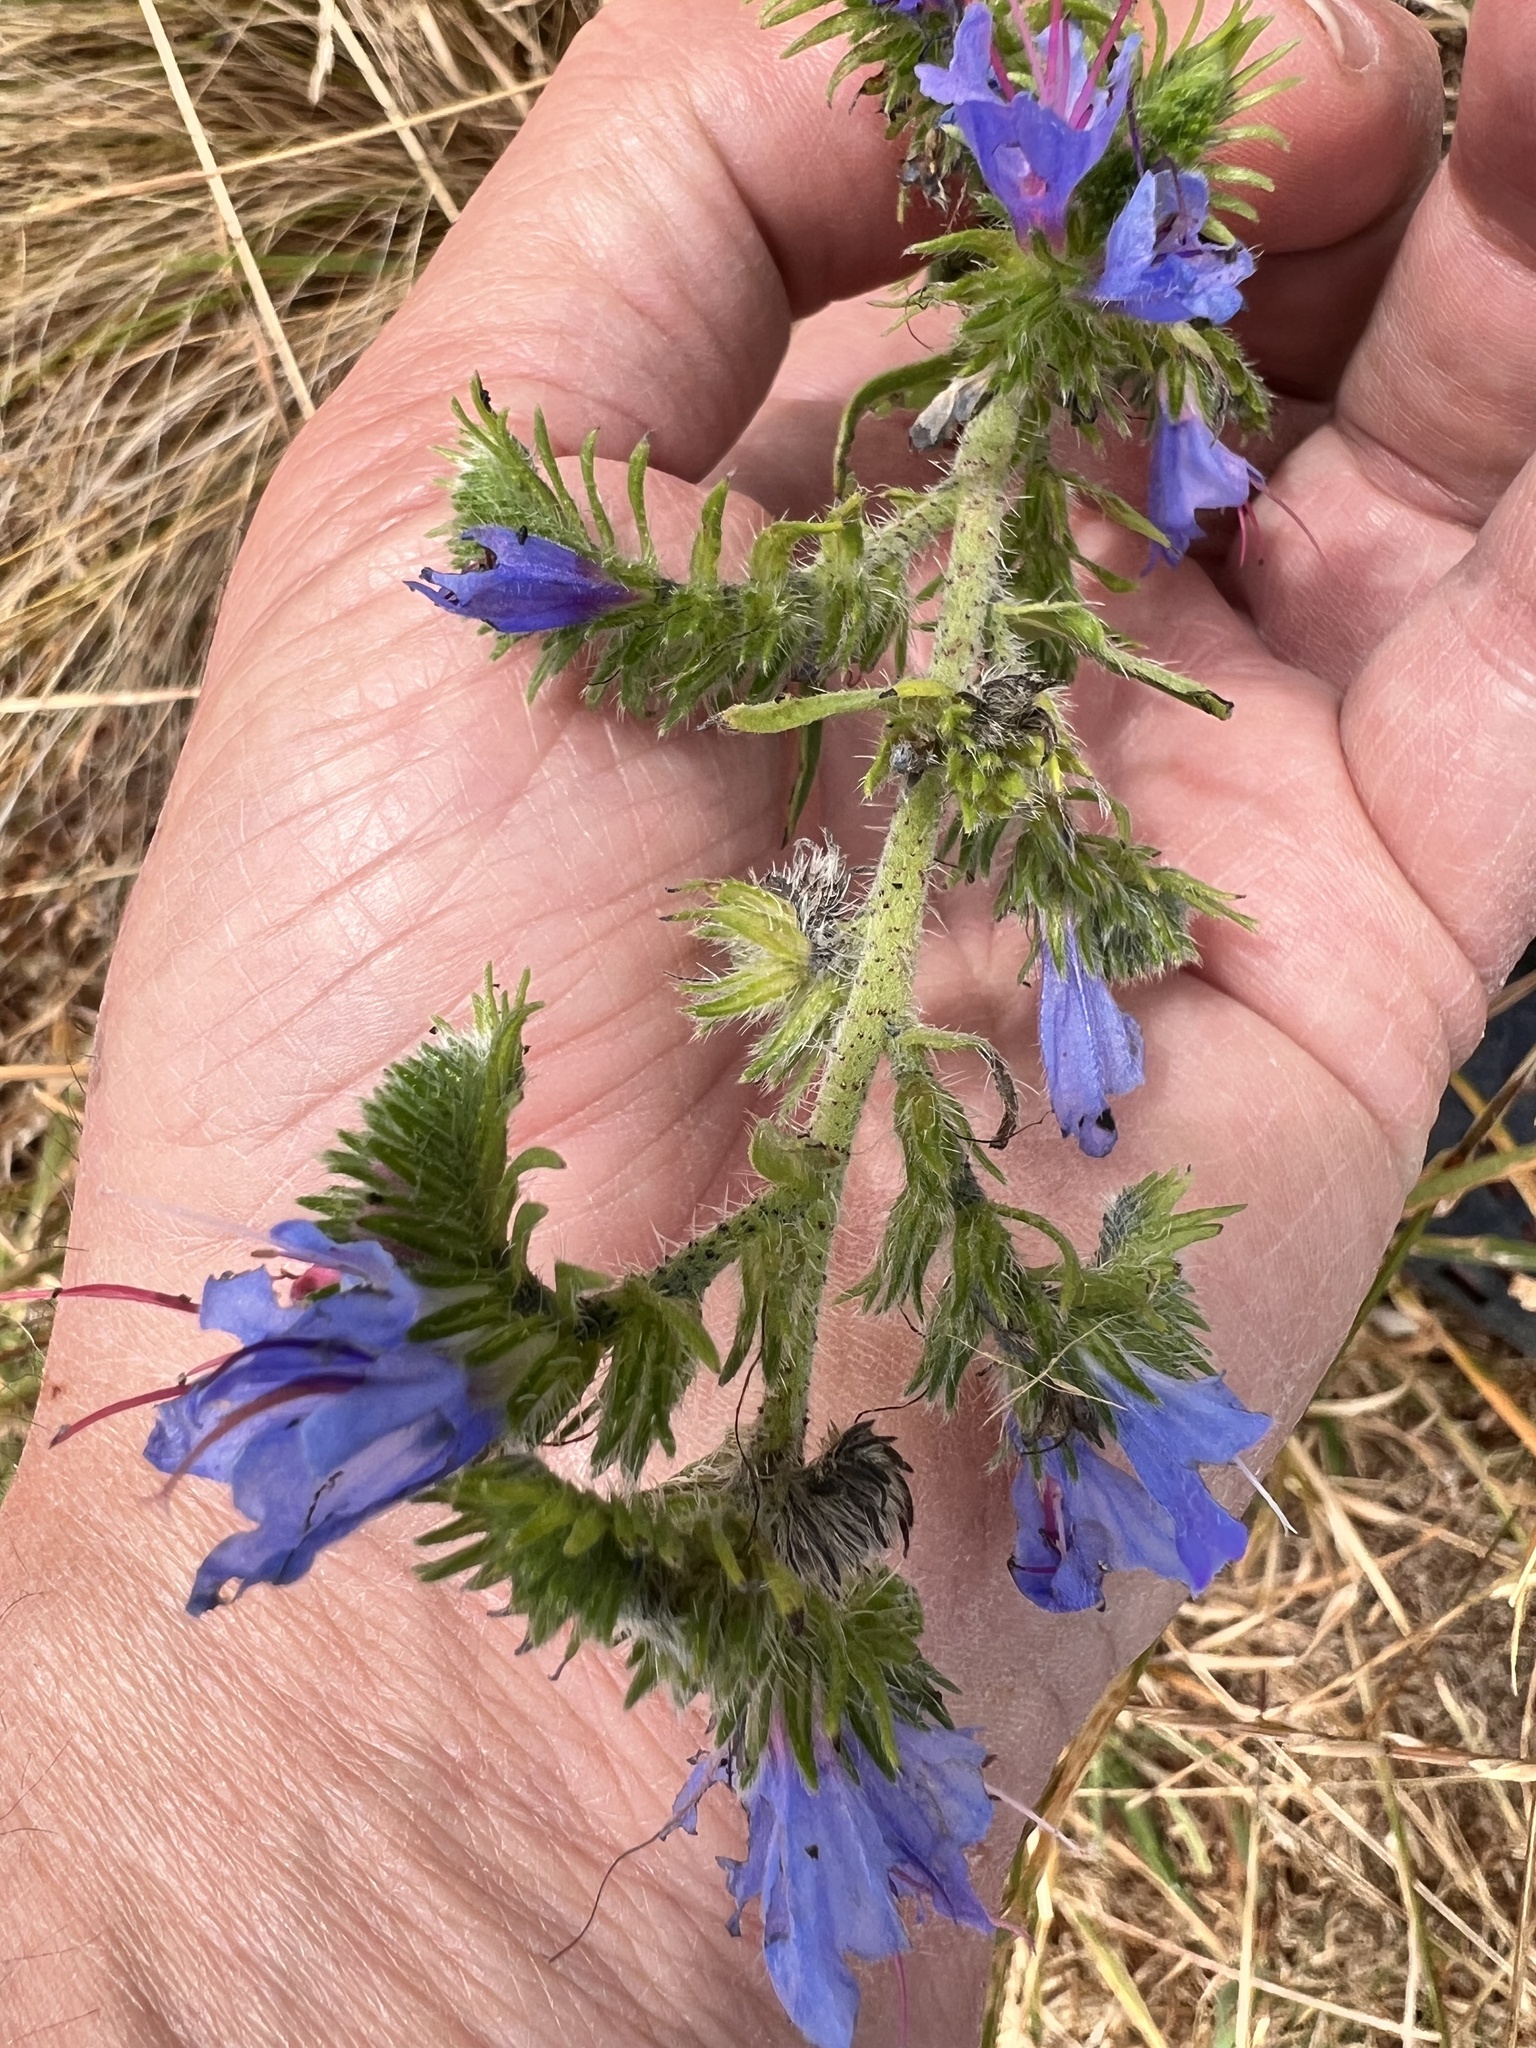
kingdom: Plantae
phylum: Tracheophyta
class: Magnoliopsida
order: Boraginales
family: Boraginaceae
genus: Echium
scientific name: Echium vulgare
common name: Common viper's bugloss
